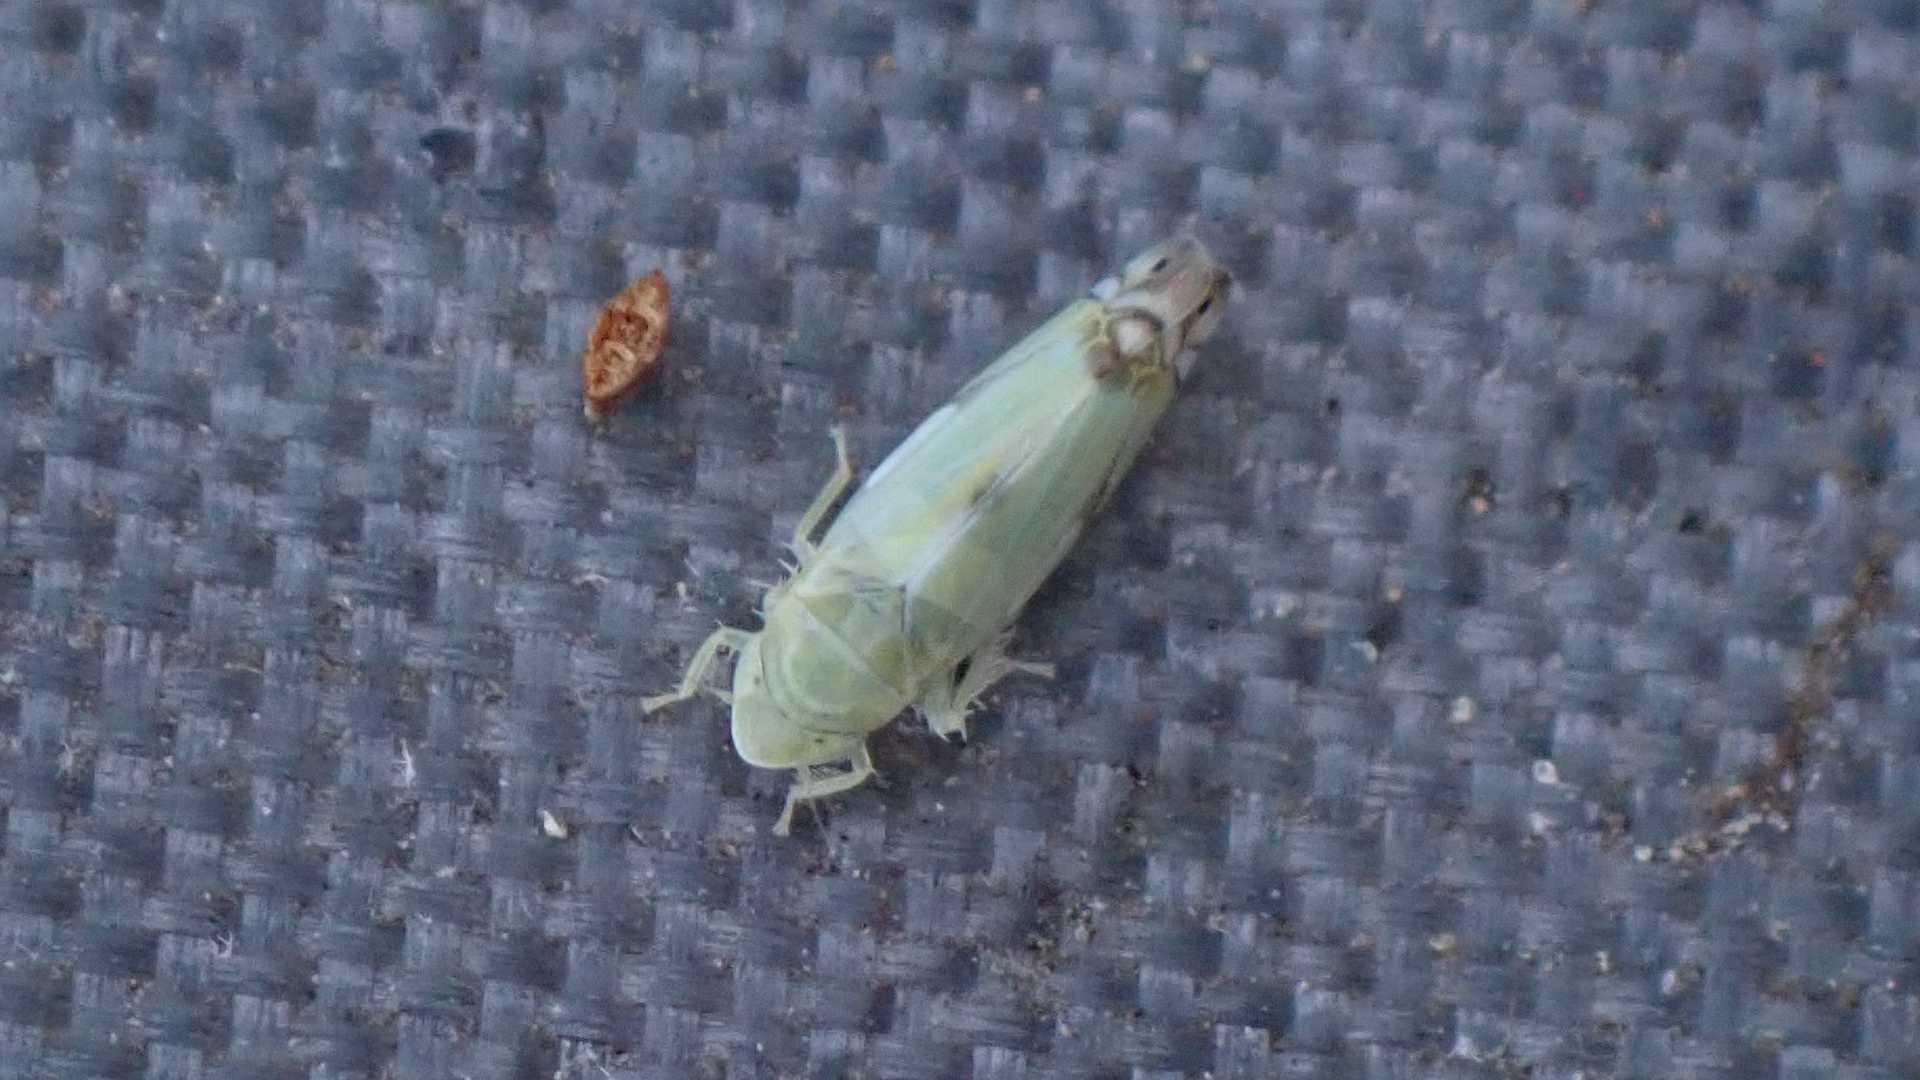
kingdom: Animalia
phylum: Arthropoda
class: Insecta
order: Hemiptera
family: Cicadellidae
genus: Zyginella
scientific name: Zyginella pulchra
